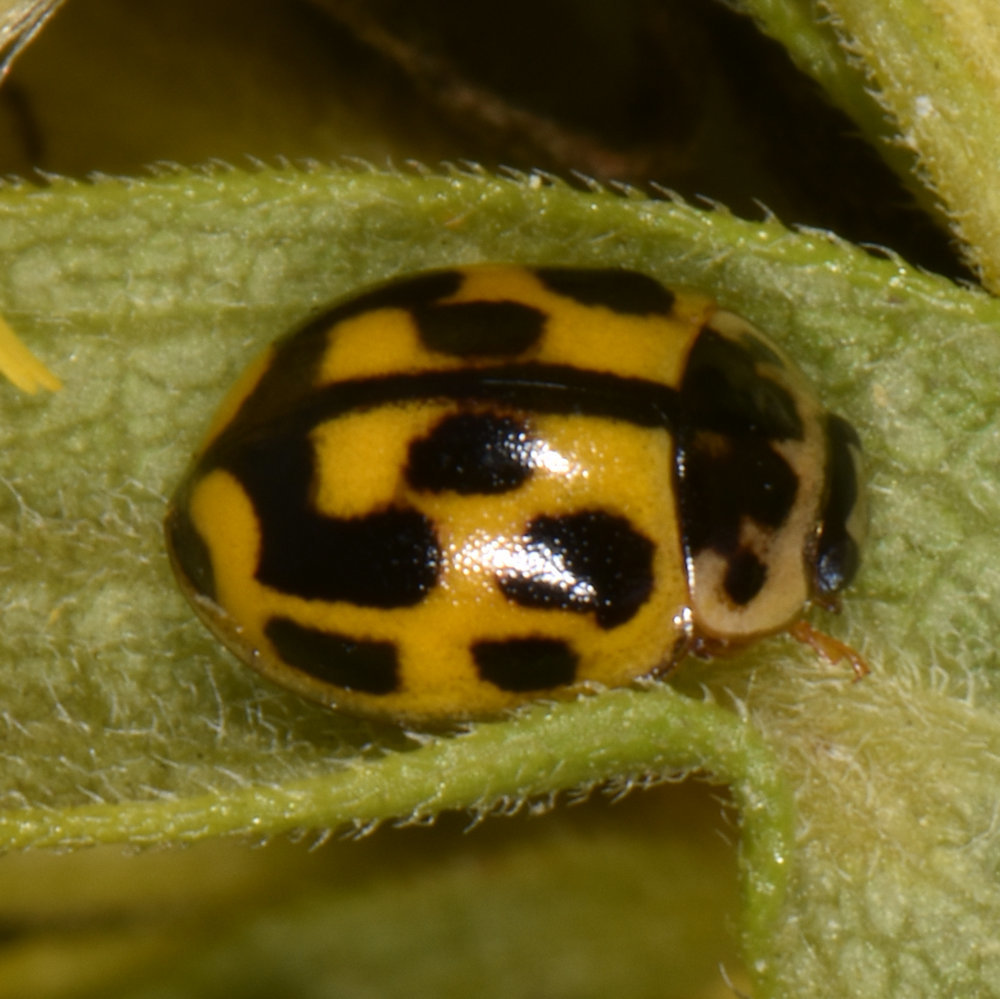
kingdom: Animalia
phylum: Arthropoda
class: Insecta
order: Coleoptera
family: Coccinellidae
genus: Propylaea
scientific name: Propylaea quatuordecimpunctata
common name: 14-spotted ladybird beetle
